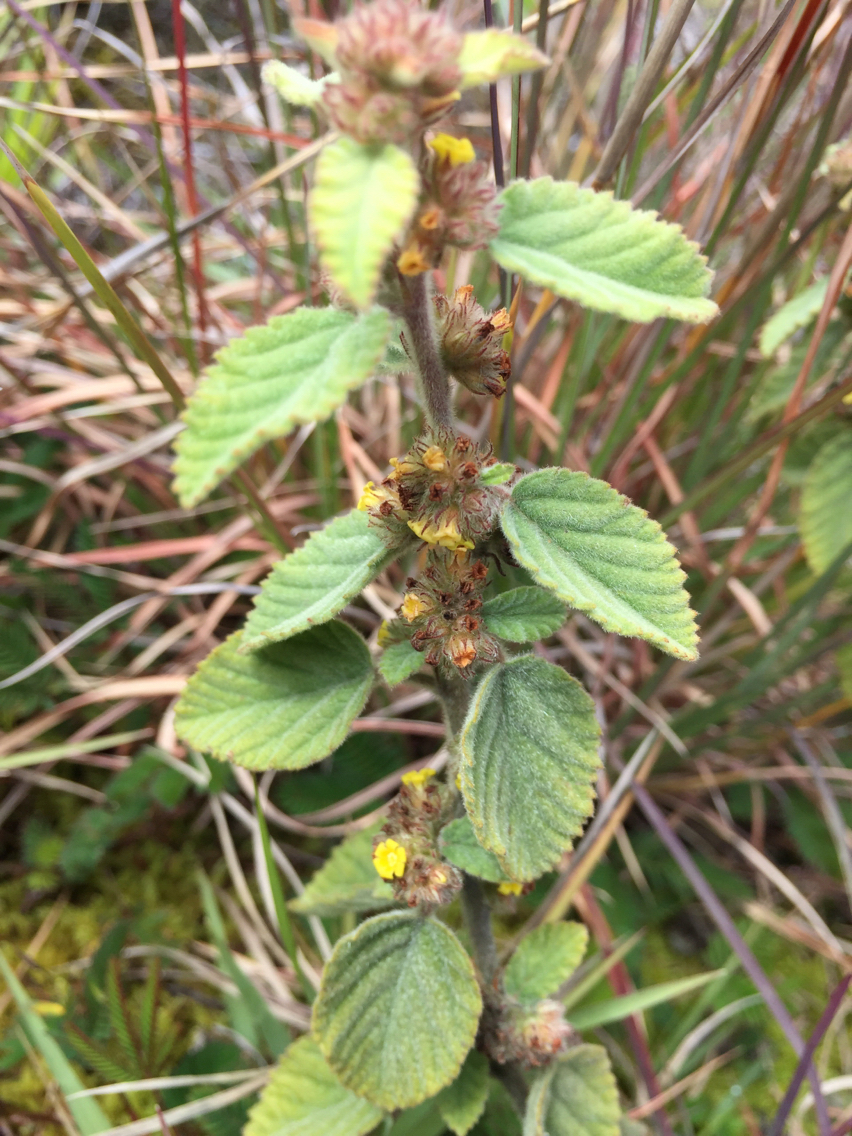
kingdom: Plantae
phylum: Tracheophyta
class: Magnoliopsida
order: Malvales
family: Malvaceae
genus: Waltheria
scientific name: Waltheria indica
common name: Leather-coat
